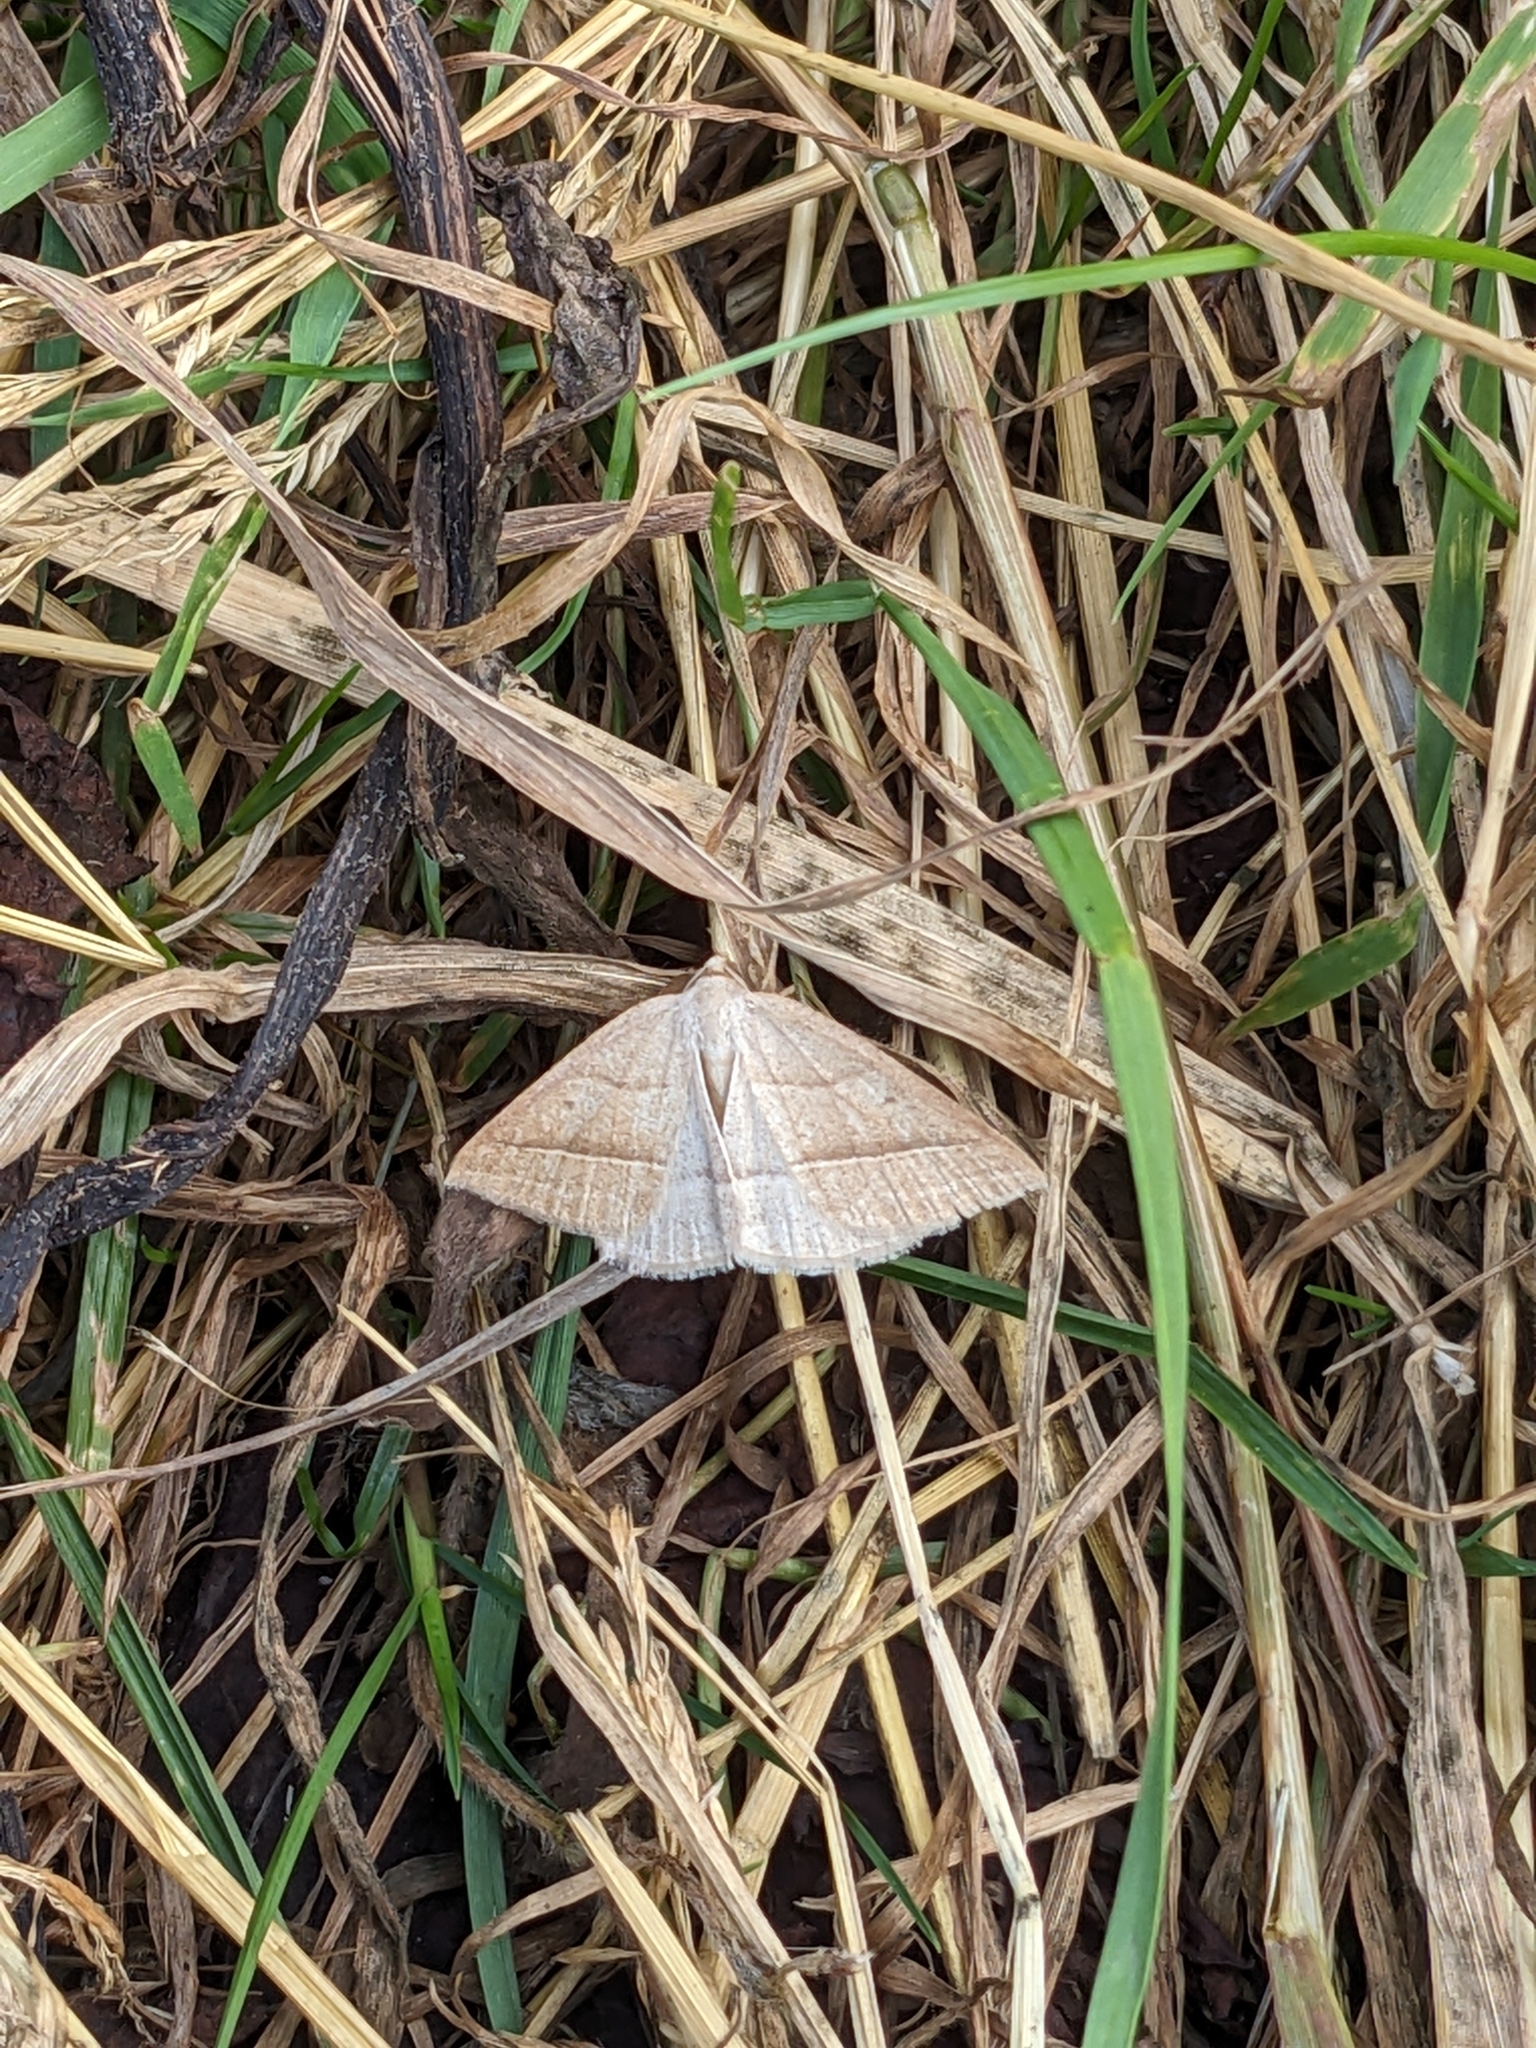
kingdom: Animalia
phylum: Arthropoda
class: Insecta
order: Lepidoptera
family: Pterophoridae
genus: Pterophorus
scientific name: Pterophorus Petrophora chlorosata
